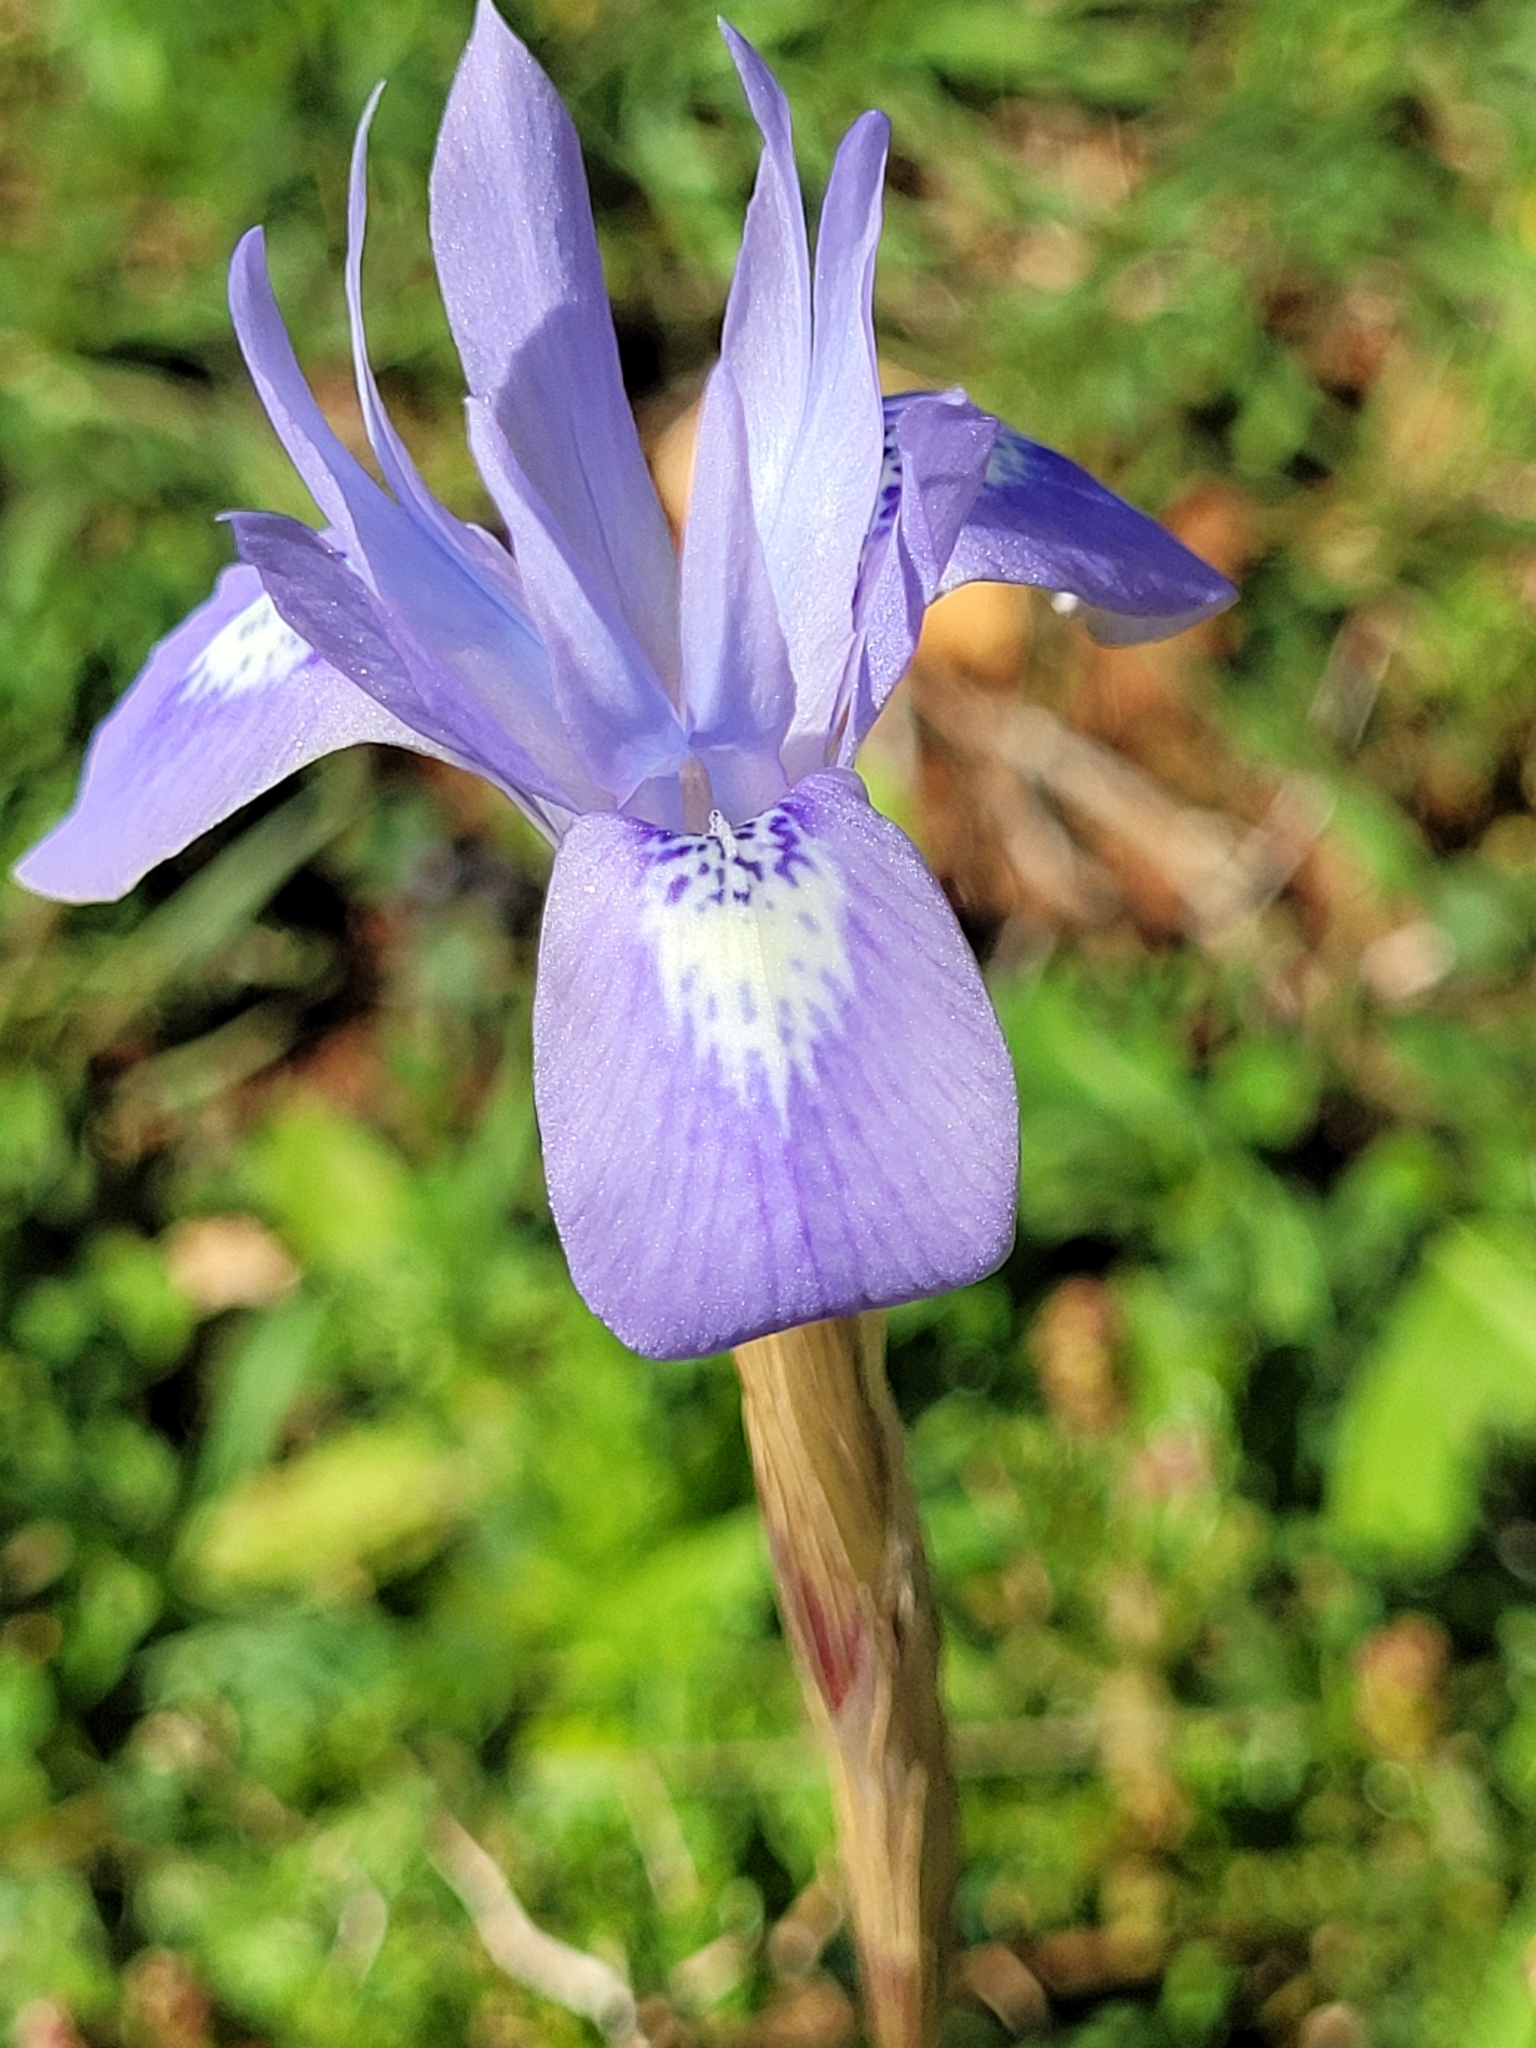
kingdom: Plantae
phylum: Tracheophyta
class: Liliopsida
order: Asparagales
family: Iridaceae
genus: Moraea
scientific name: Moraea sisyrinchium
